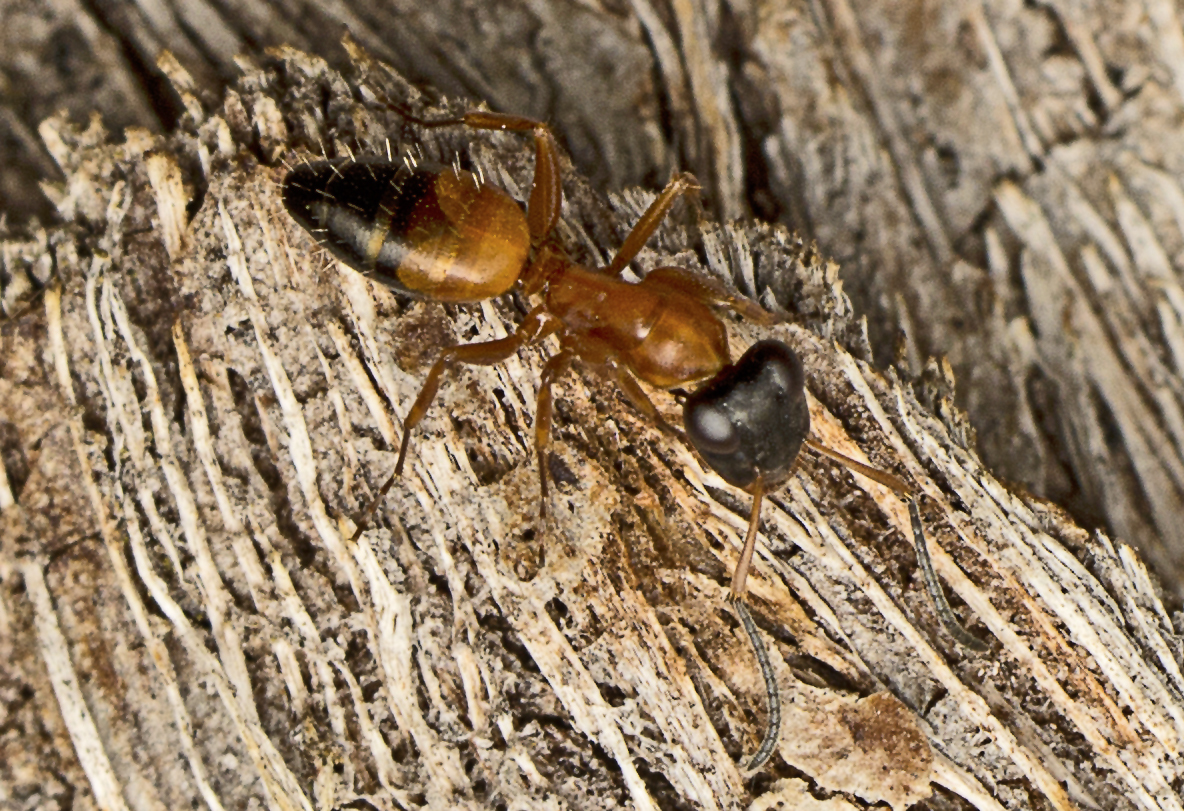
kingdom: Animalia
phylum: Arthropoda
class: Insecta
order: Hymenoptera
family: Formicidae
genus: Opisthopsis
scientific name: Opisthopsis rufithorax
